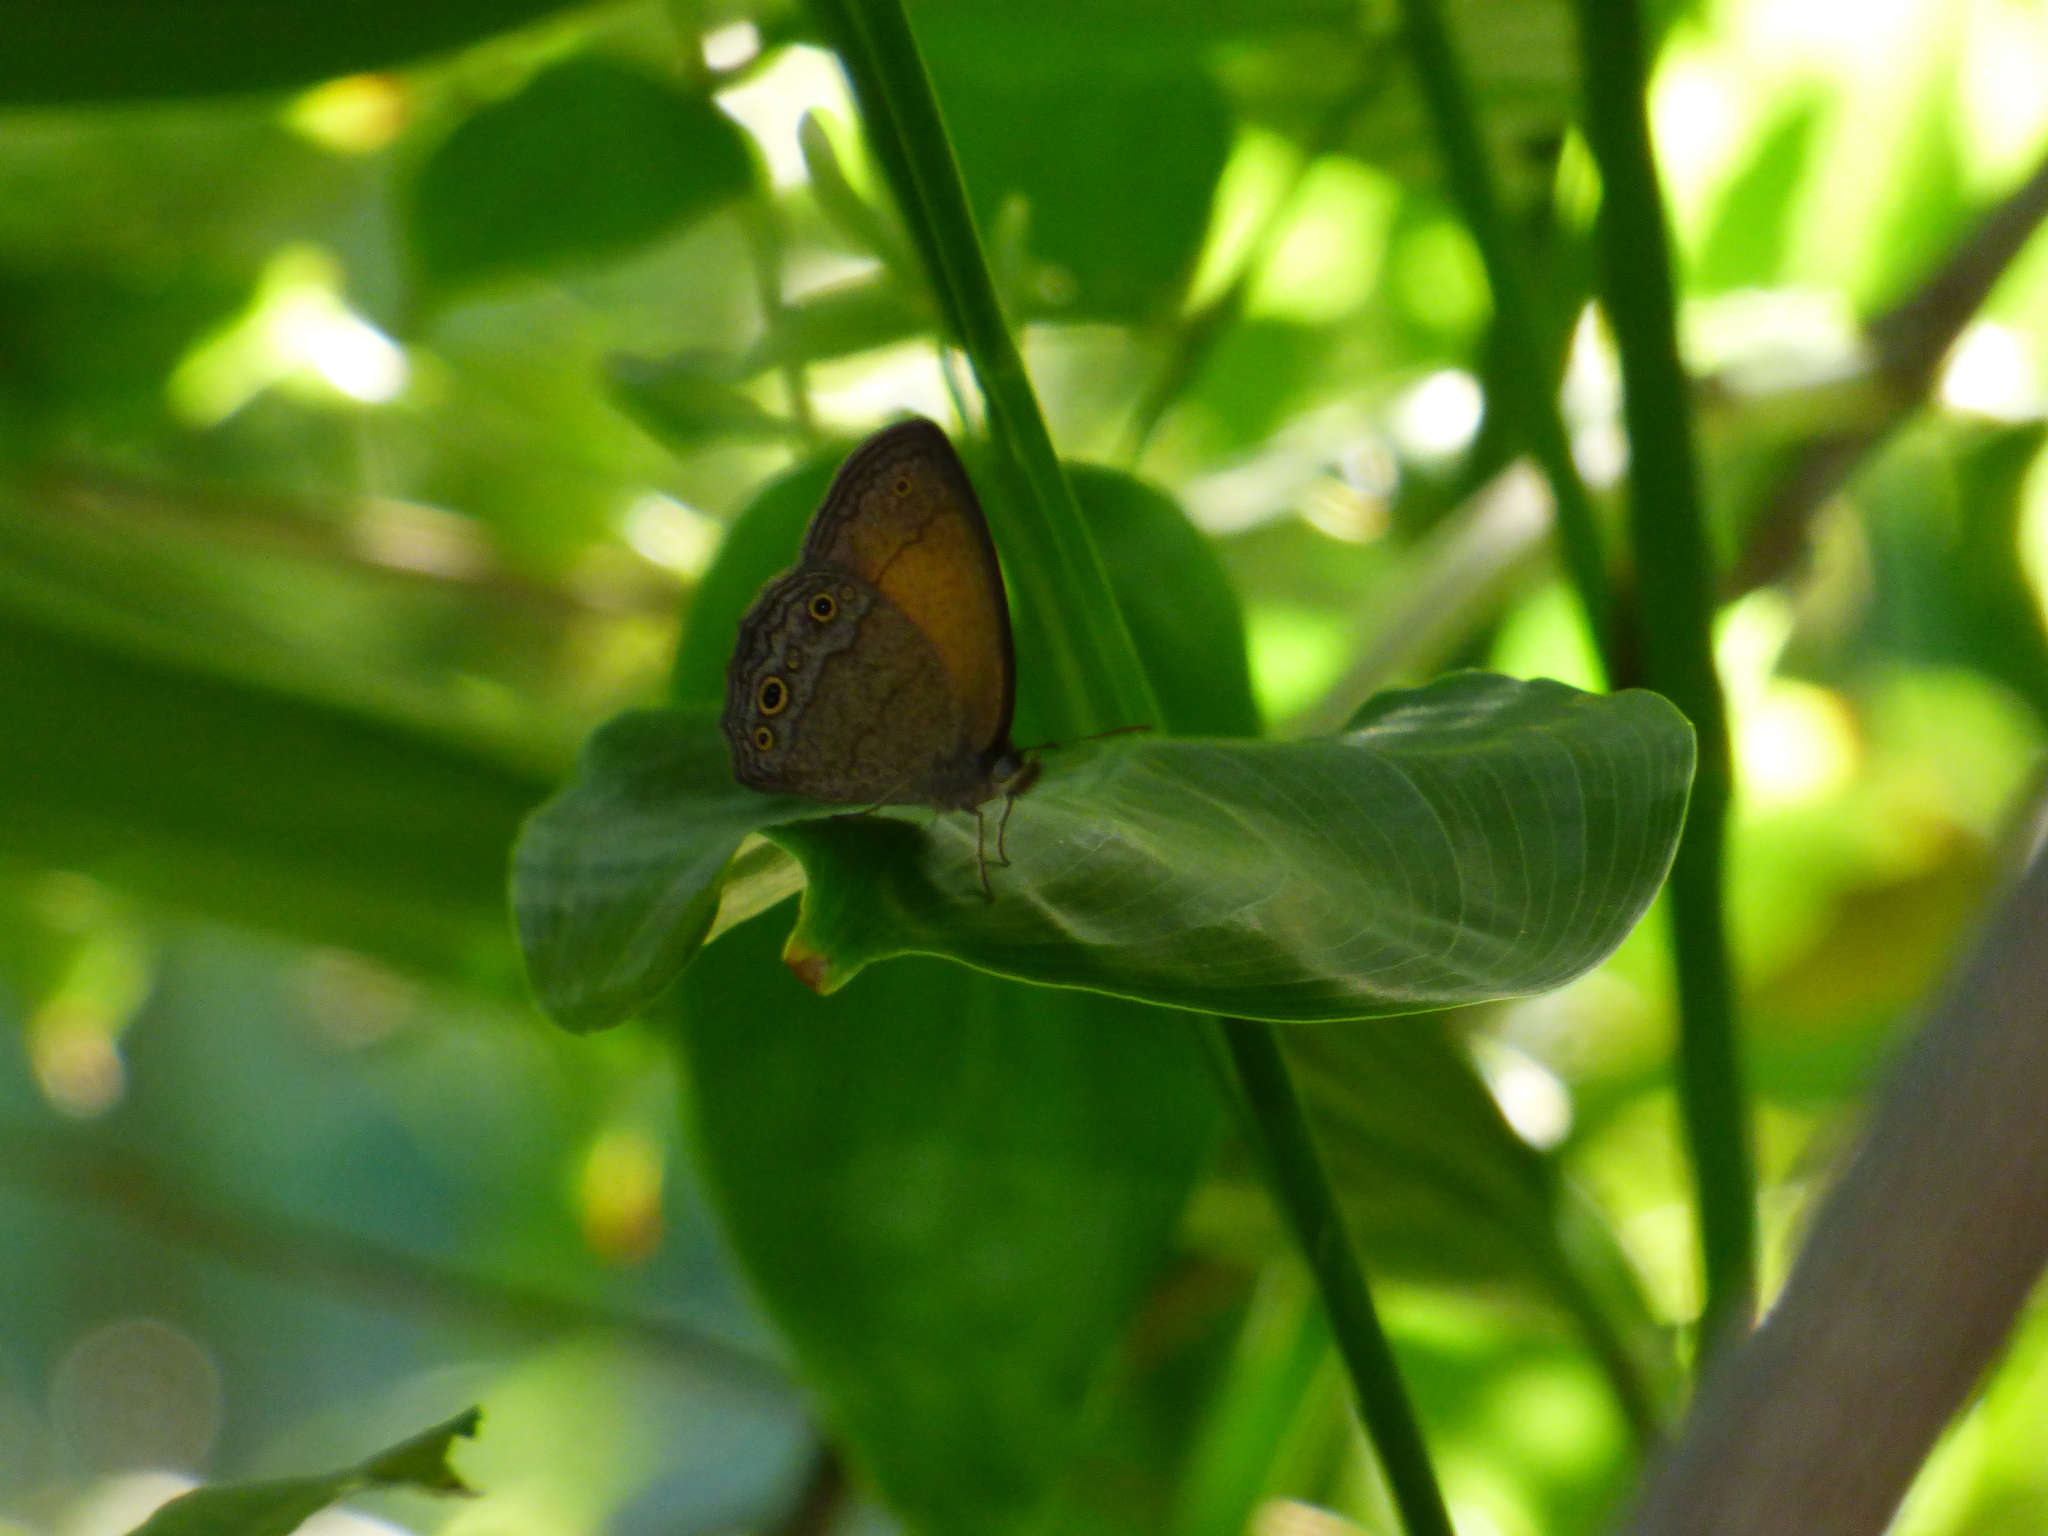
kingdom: Animalia
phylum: Arthropoda
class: Insecta
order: Lepidoptera
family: Nymphalidae
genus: Yphthimoides
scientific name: Yphthimoides celmis
